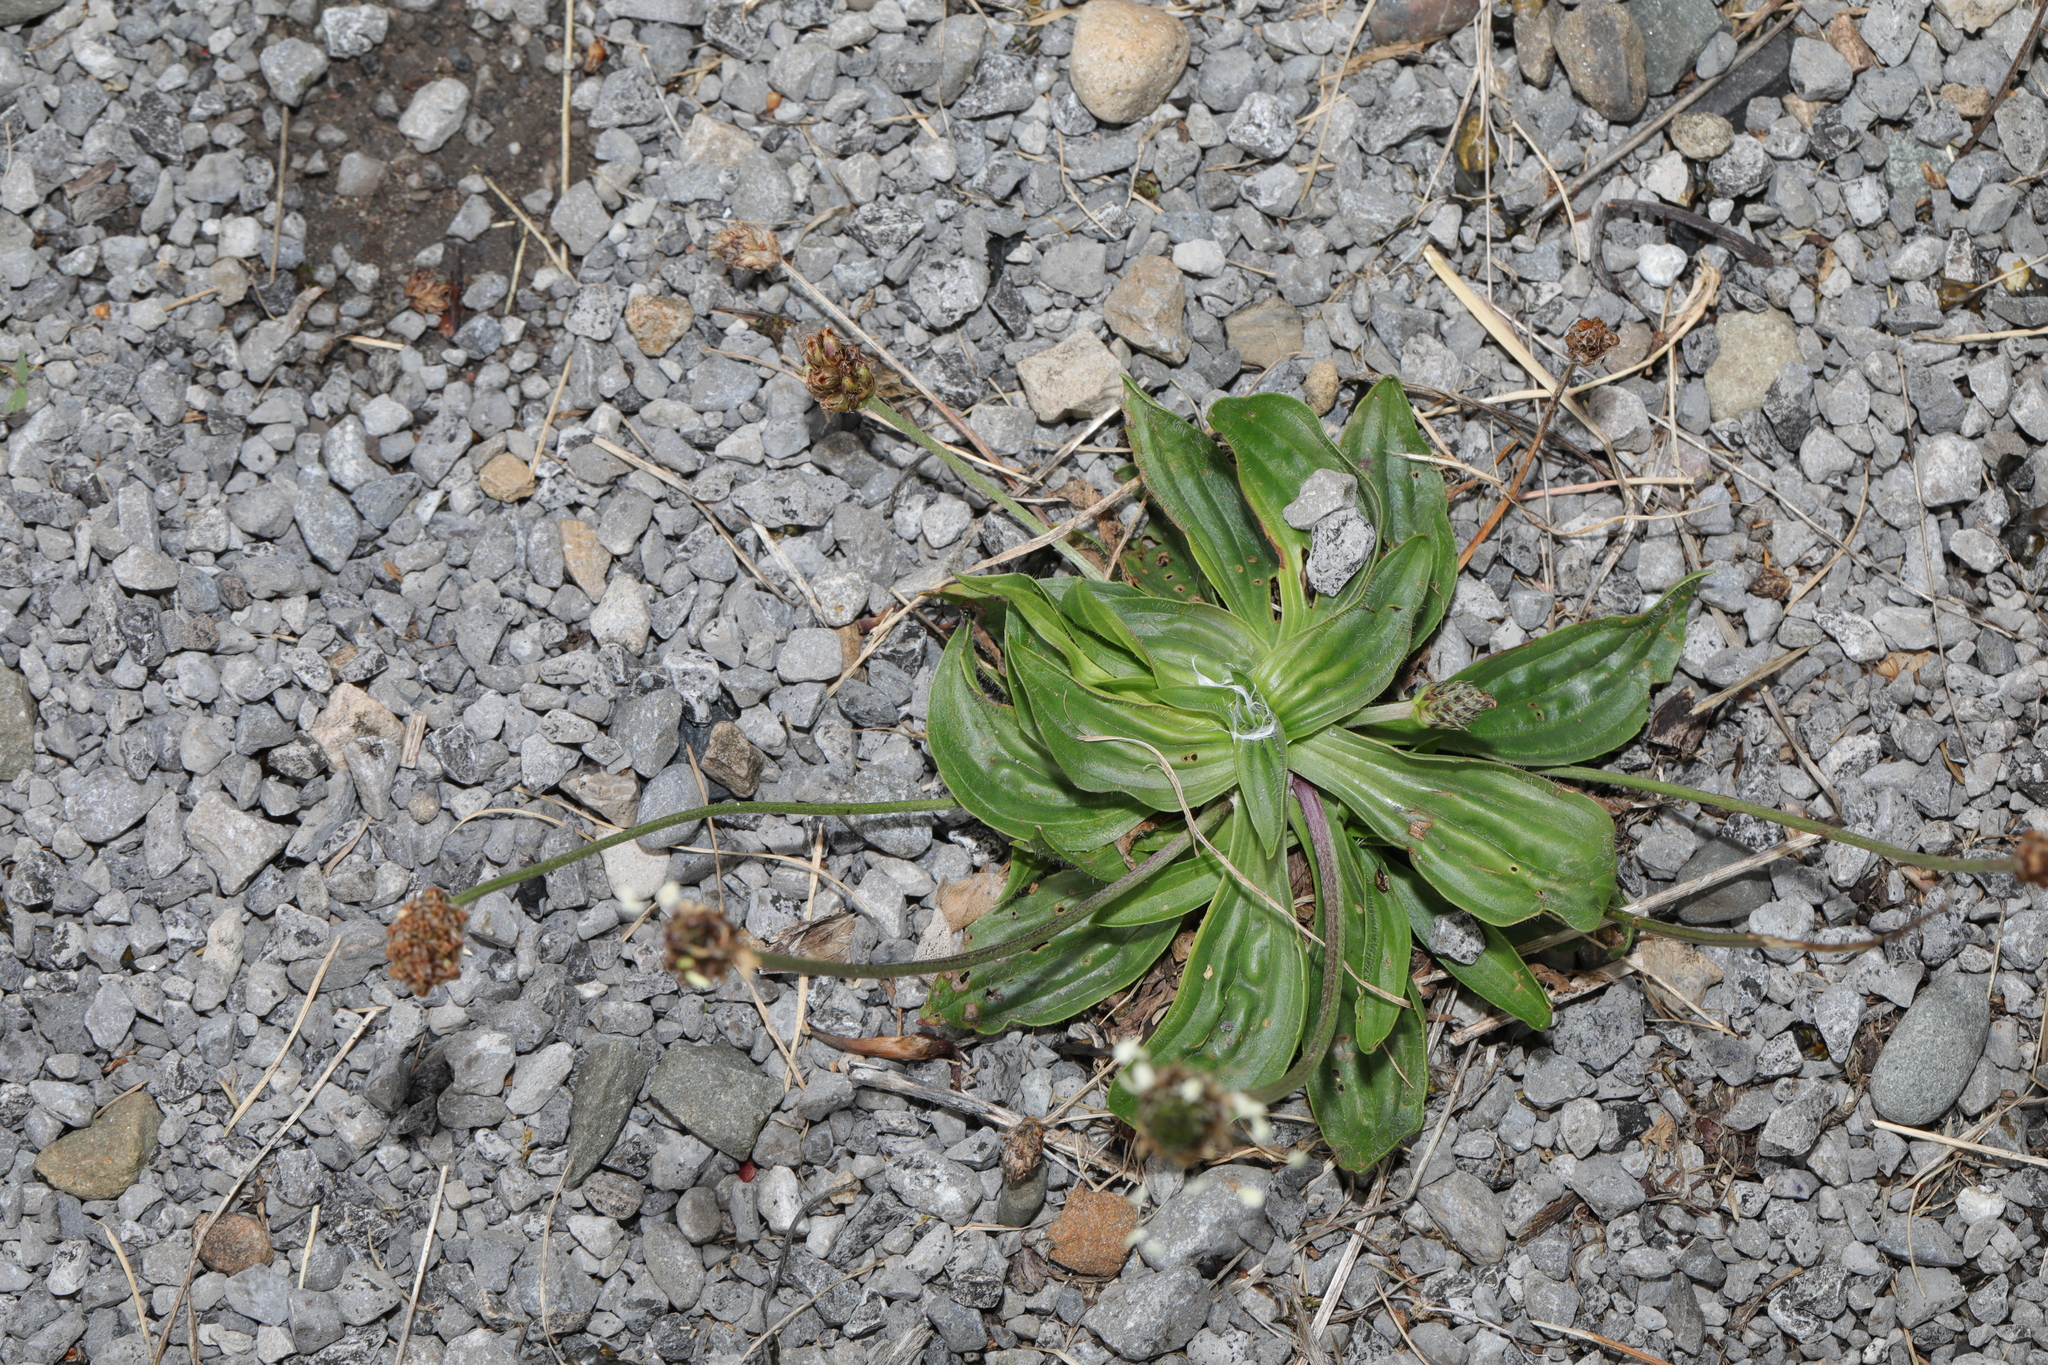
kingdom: Plantae
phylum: Tracheophyta
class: Magnoliopsida
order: Lamiales
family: Plantaginaceae
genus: Plantago
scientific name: Plantago lanceolata
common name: Ribwort plantain
